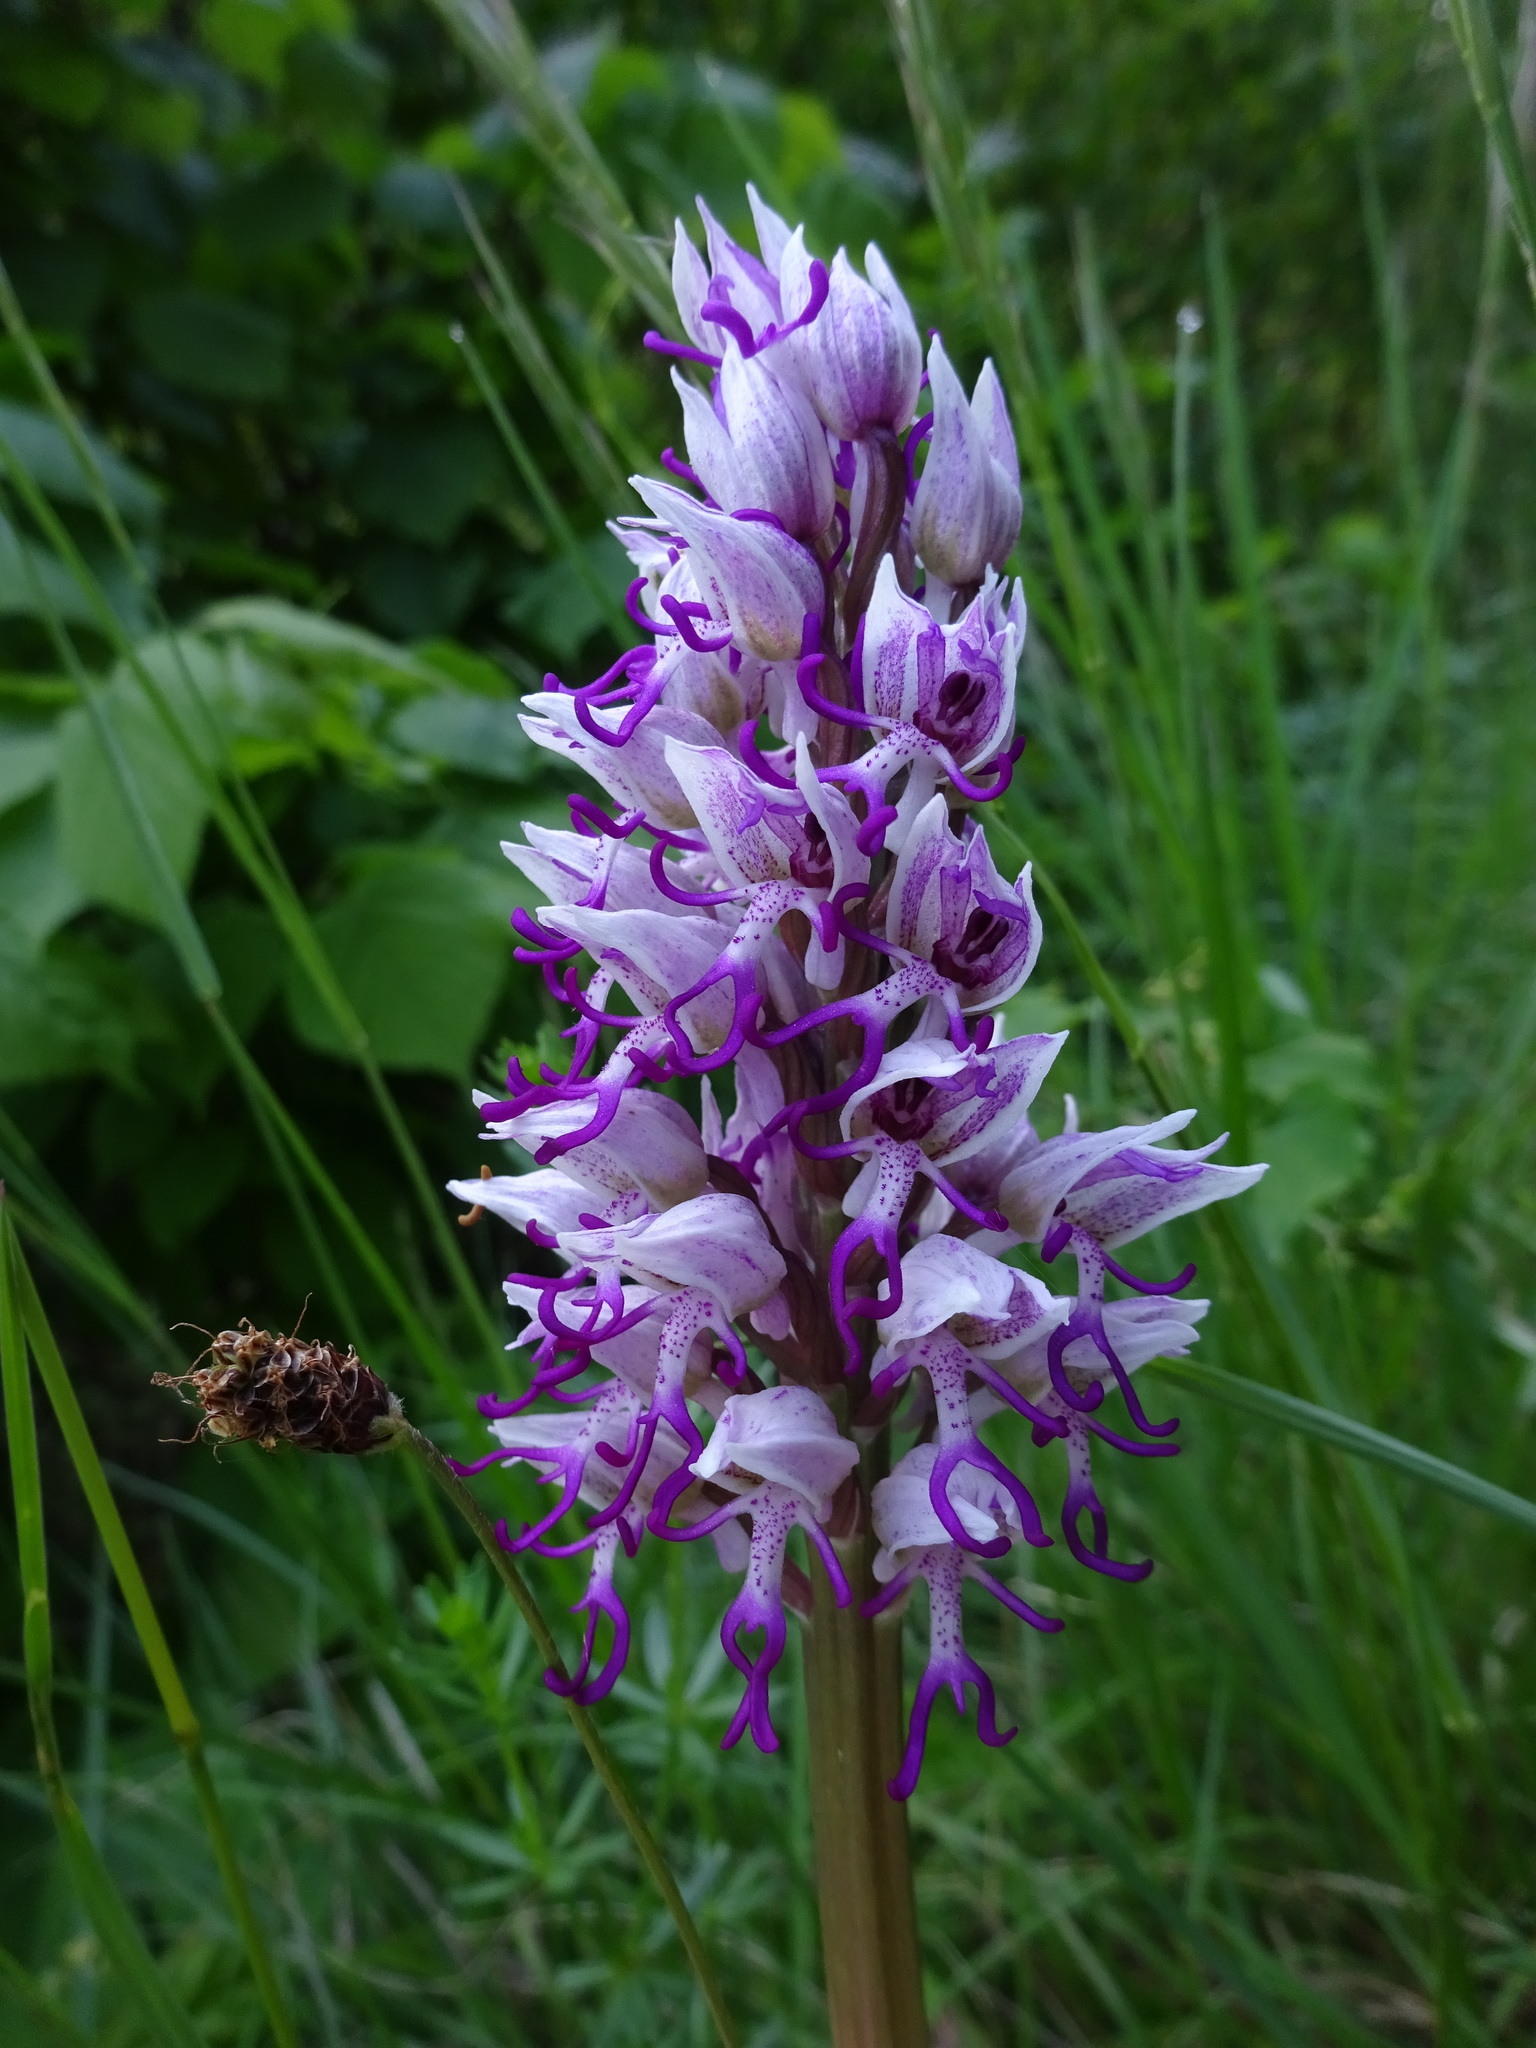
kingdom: Plantae
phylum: Tracheophyta
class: Liliopsida
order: Asparagales
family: Orchidaceae
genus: Orchis
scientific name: Orchis simia
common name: Monkey orchid
